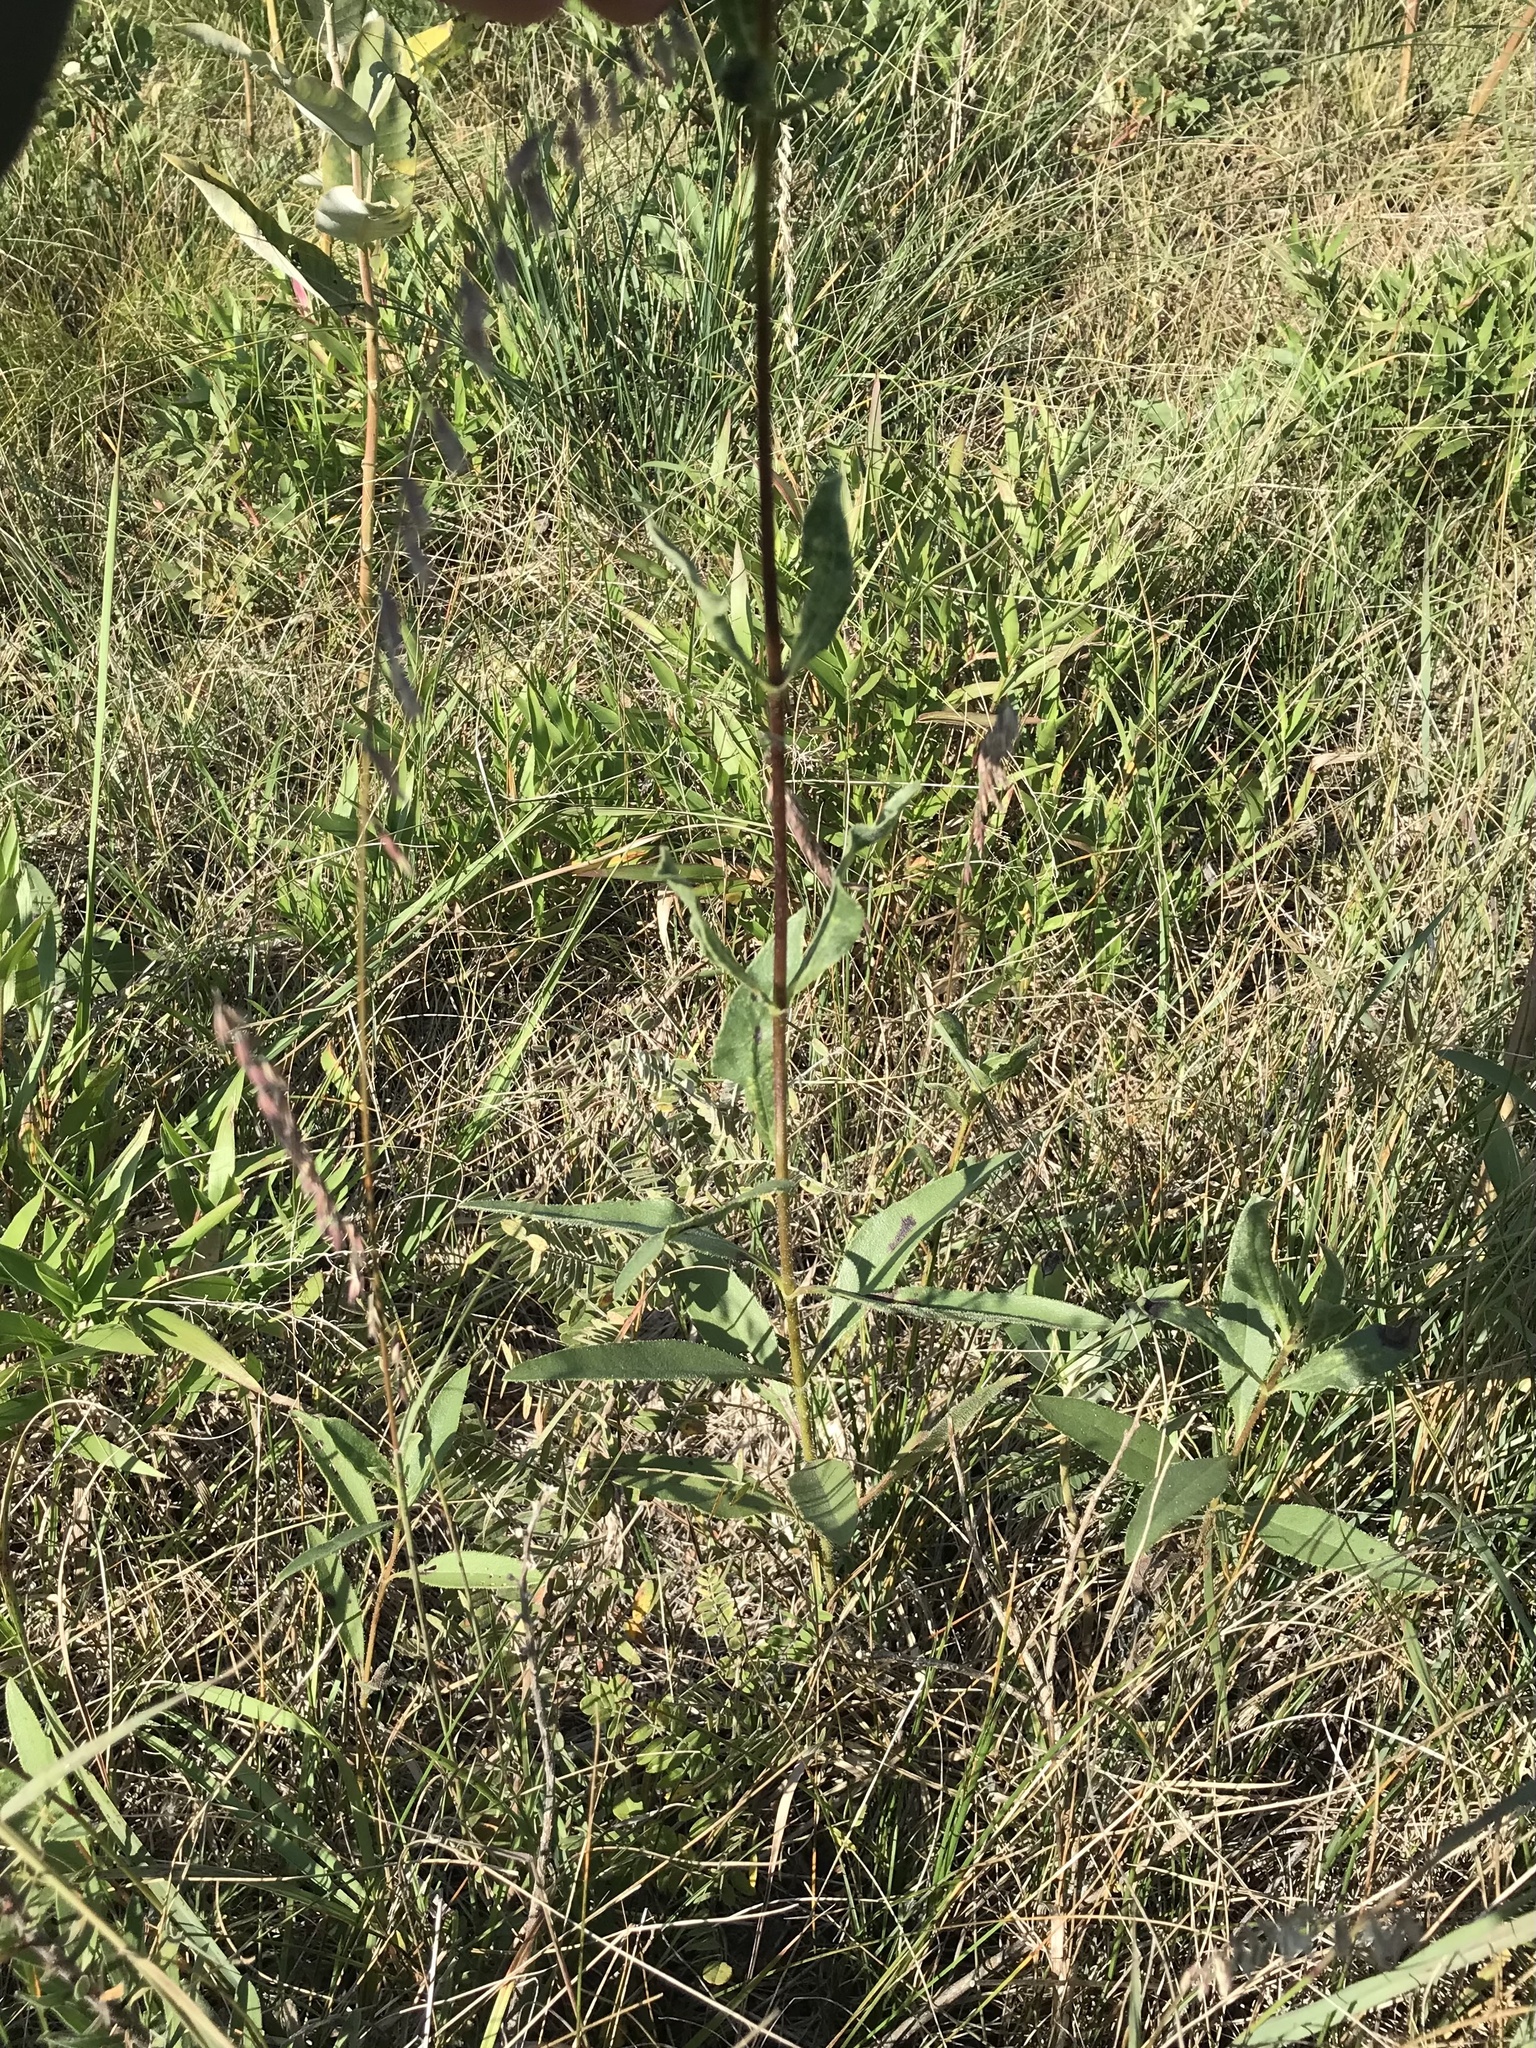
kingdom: Plantae
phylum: Tracheophyta
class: Magnoliopsida
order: Asterales
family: Asteraceae
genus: Helianthus
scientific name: Helianthus pauciflorus
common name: Stiff sunflower
